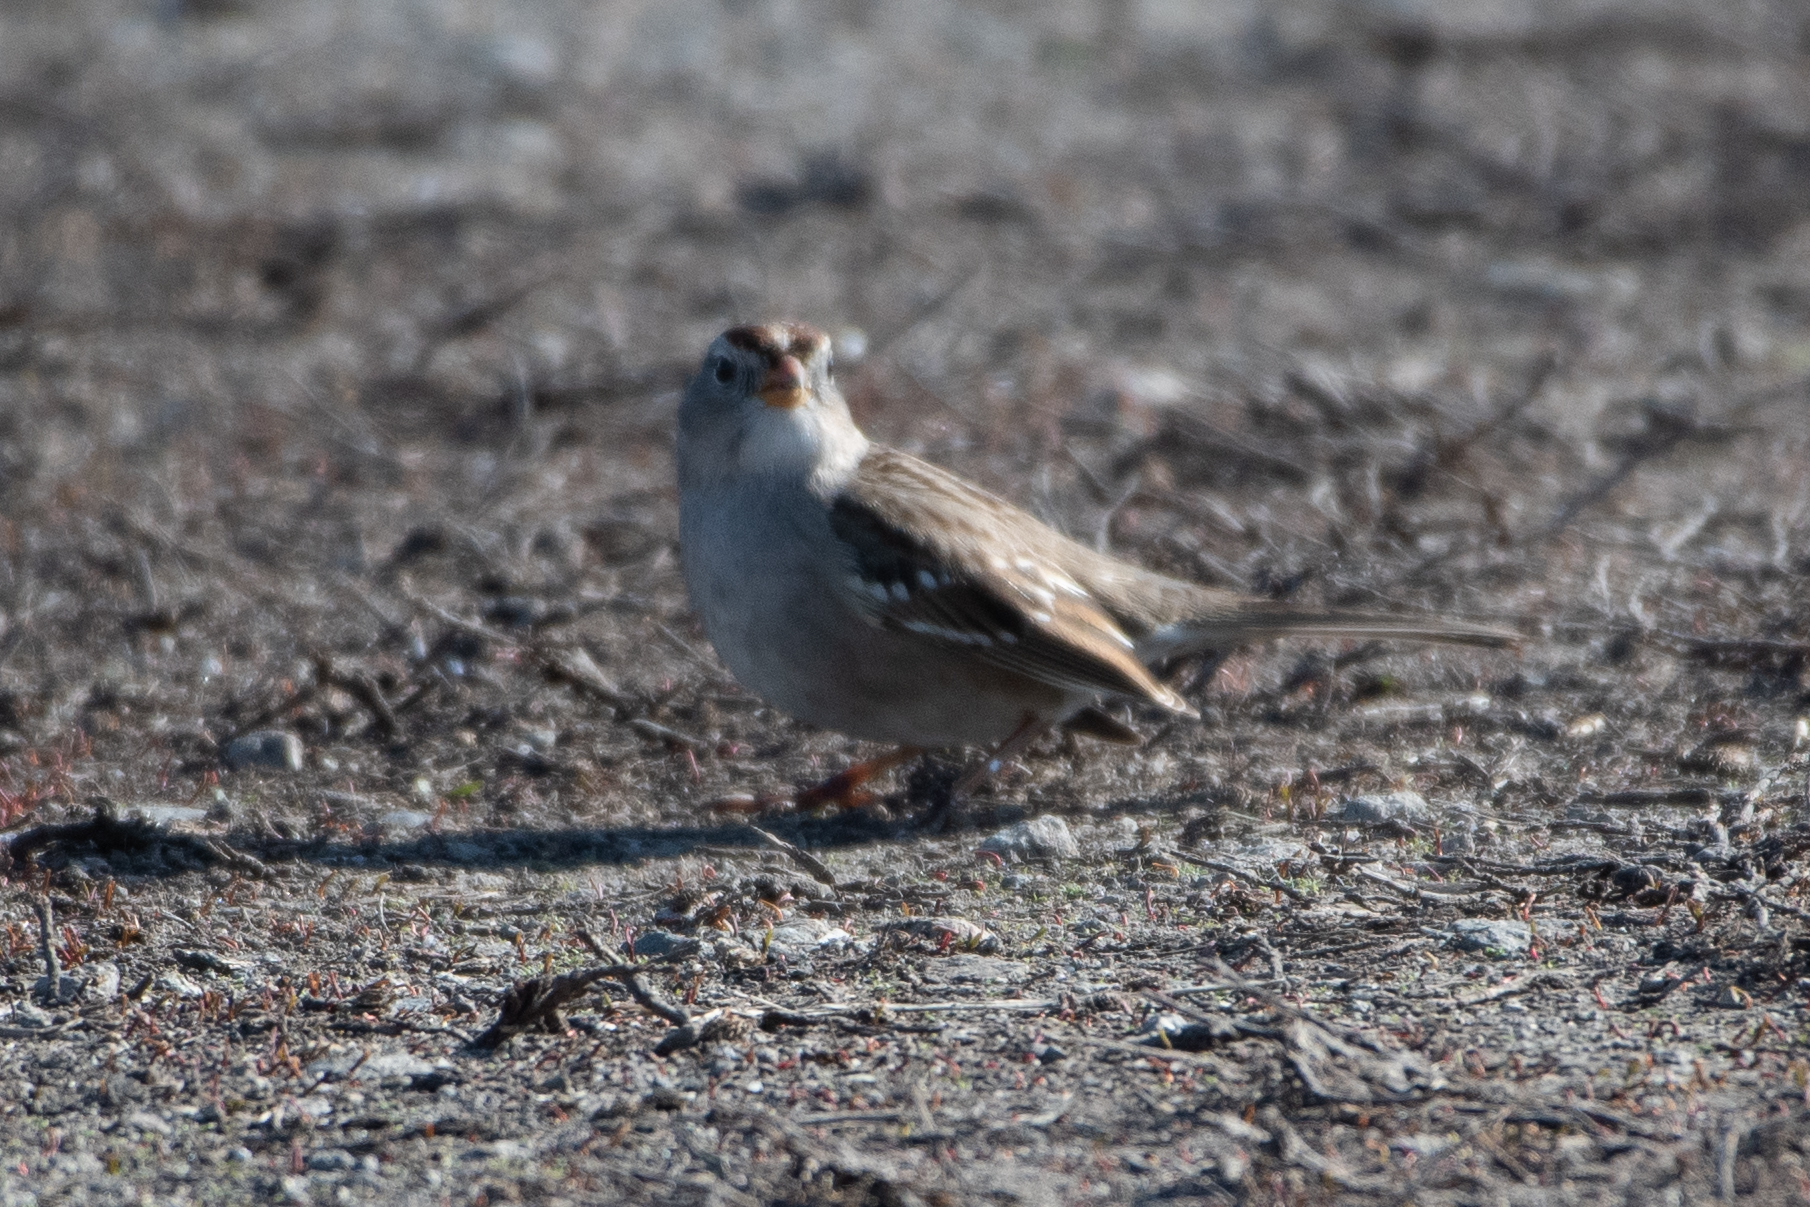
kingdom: Animalia
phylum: Chordata
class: Aves
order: Passeriformes
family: Passerellidae
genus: Zonotrichia
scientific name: Zonotrichia leucophrys
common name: White-crowned sparrow
